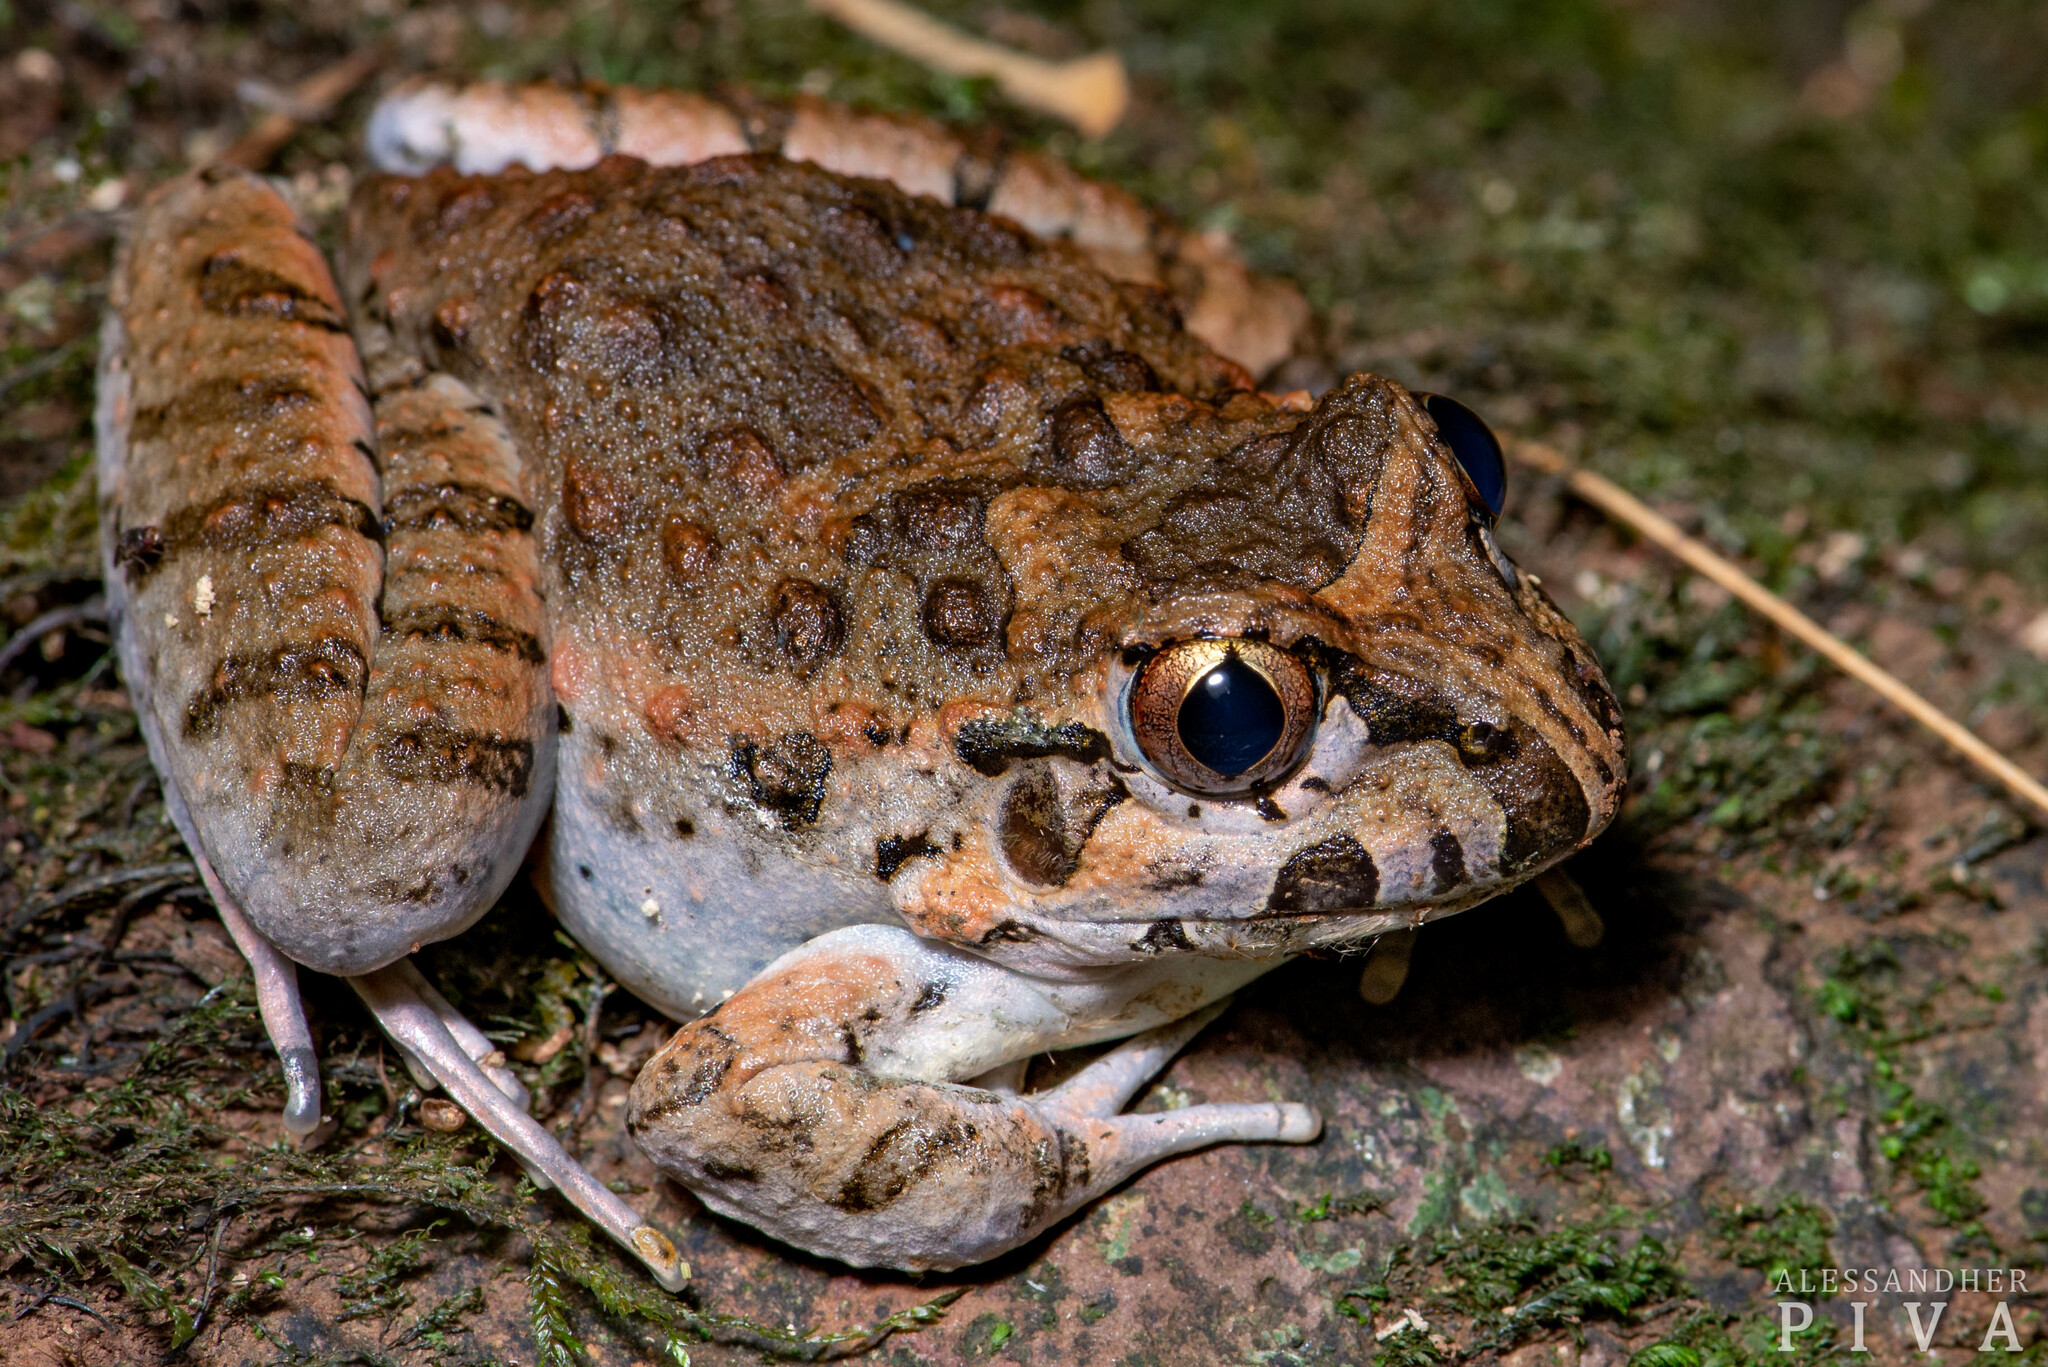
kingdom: Animalia
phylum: Chordata
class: Amphibia
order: Anura
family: Alsodidae
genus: Limnomedusa
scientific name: Limnomedusa macroglossa
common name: Rapids frog
